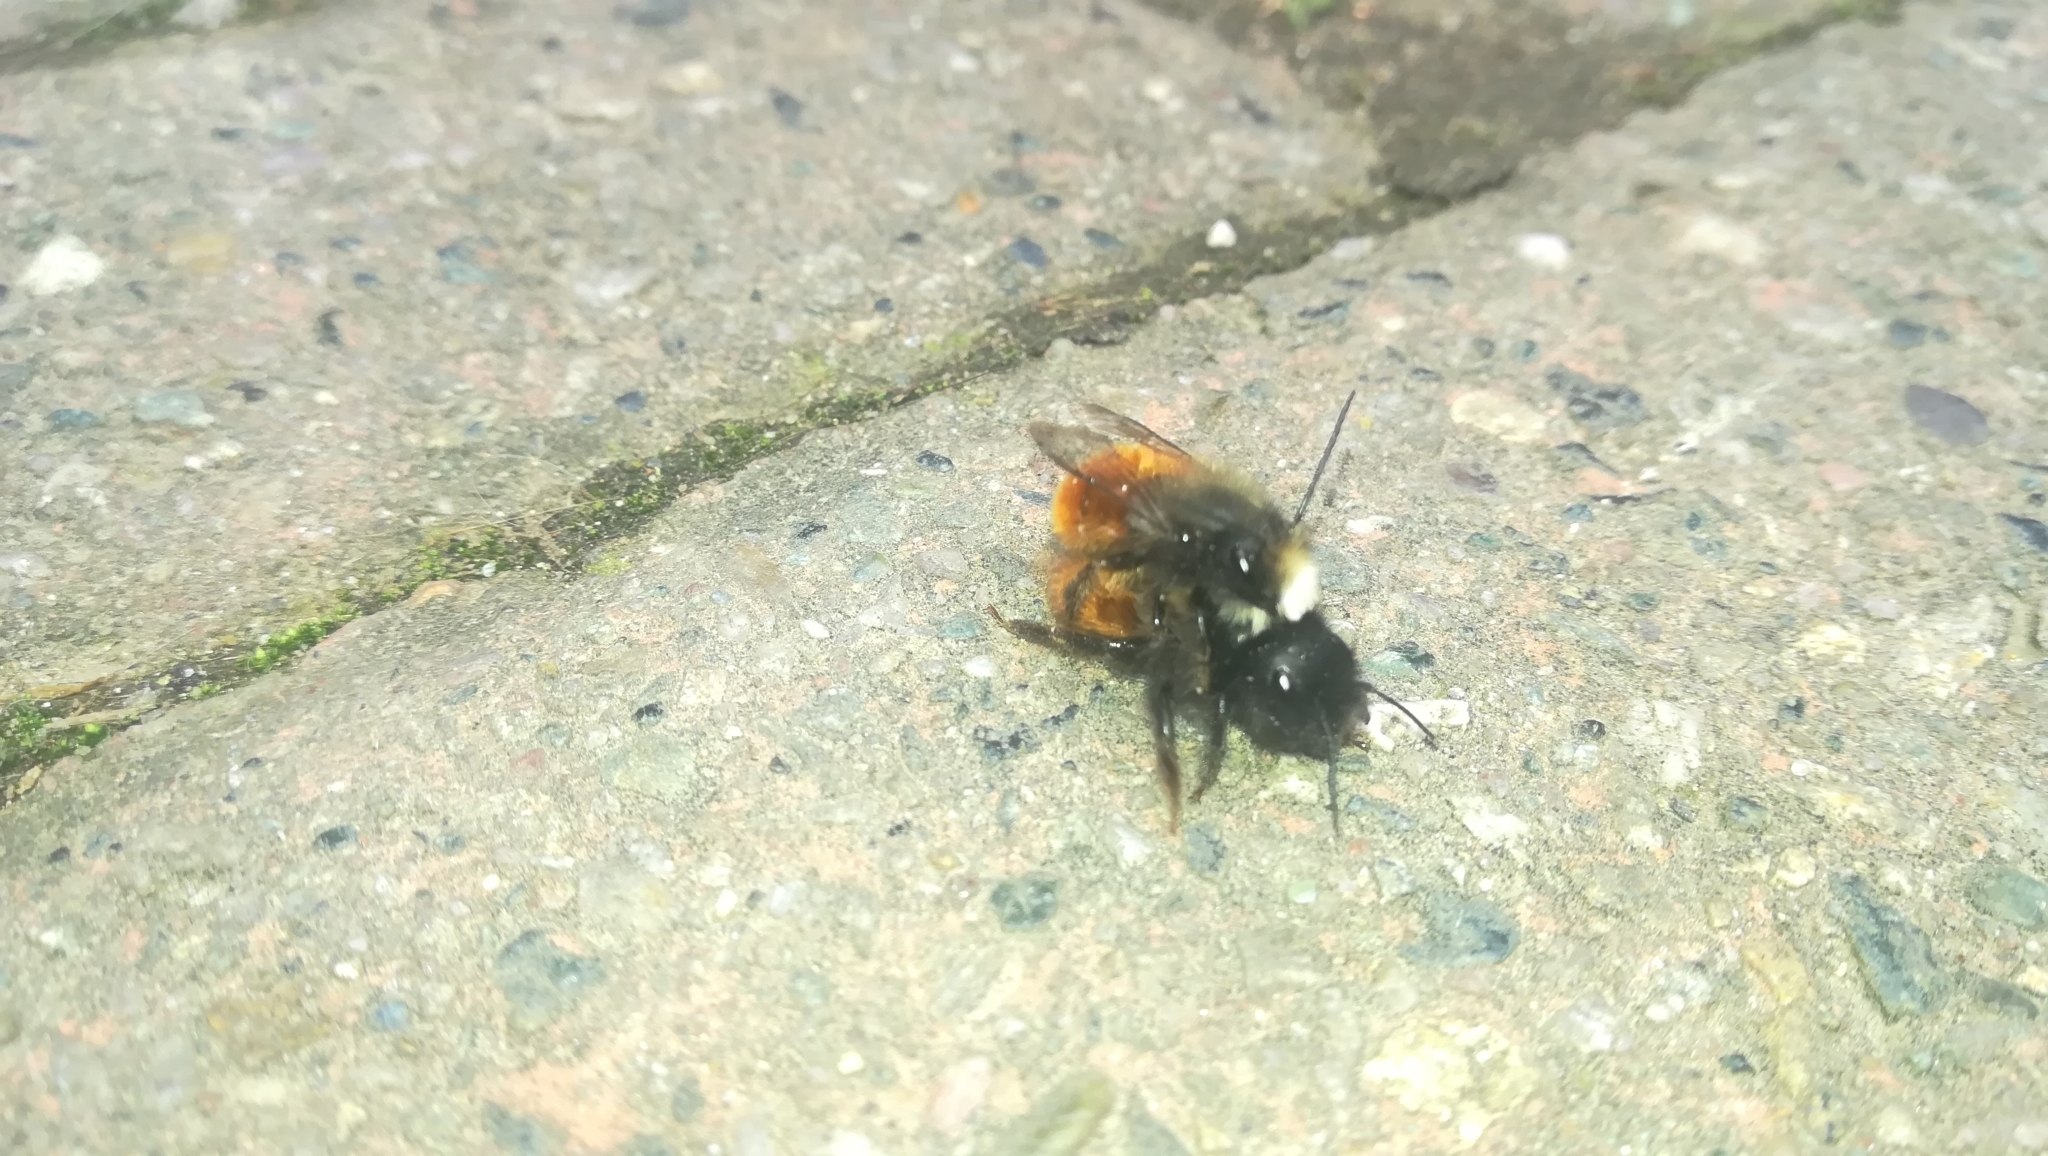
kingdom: Animalia
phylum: Arthropoda
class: Insecta
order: Hymenoptera
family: Megachilidae
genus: Osmia
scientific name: Osmia cornuta
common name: Mason bee
